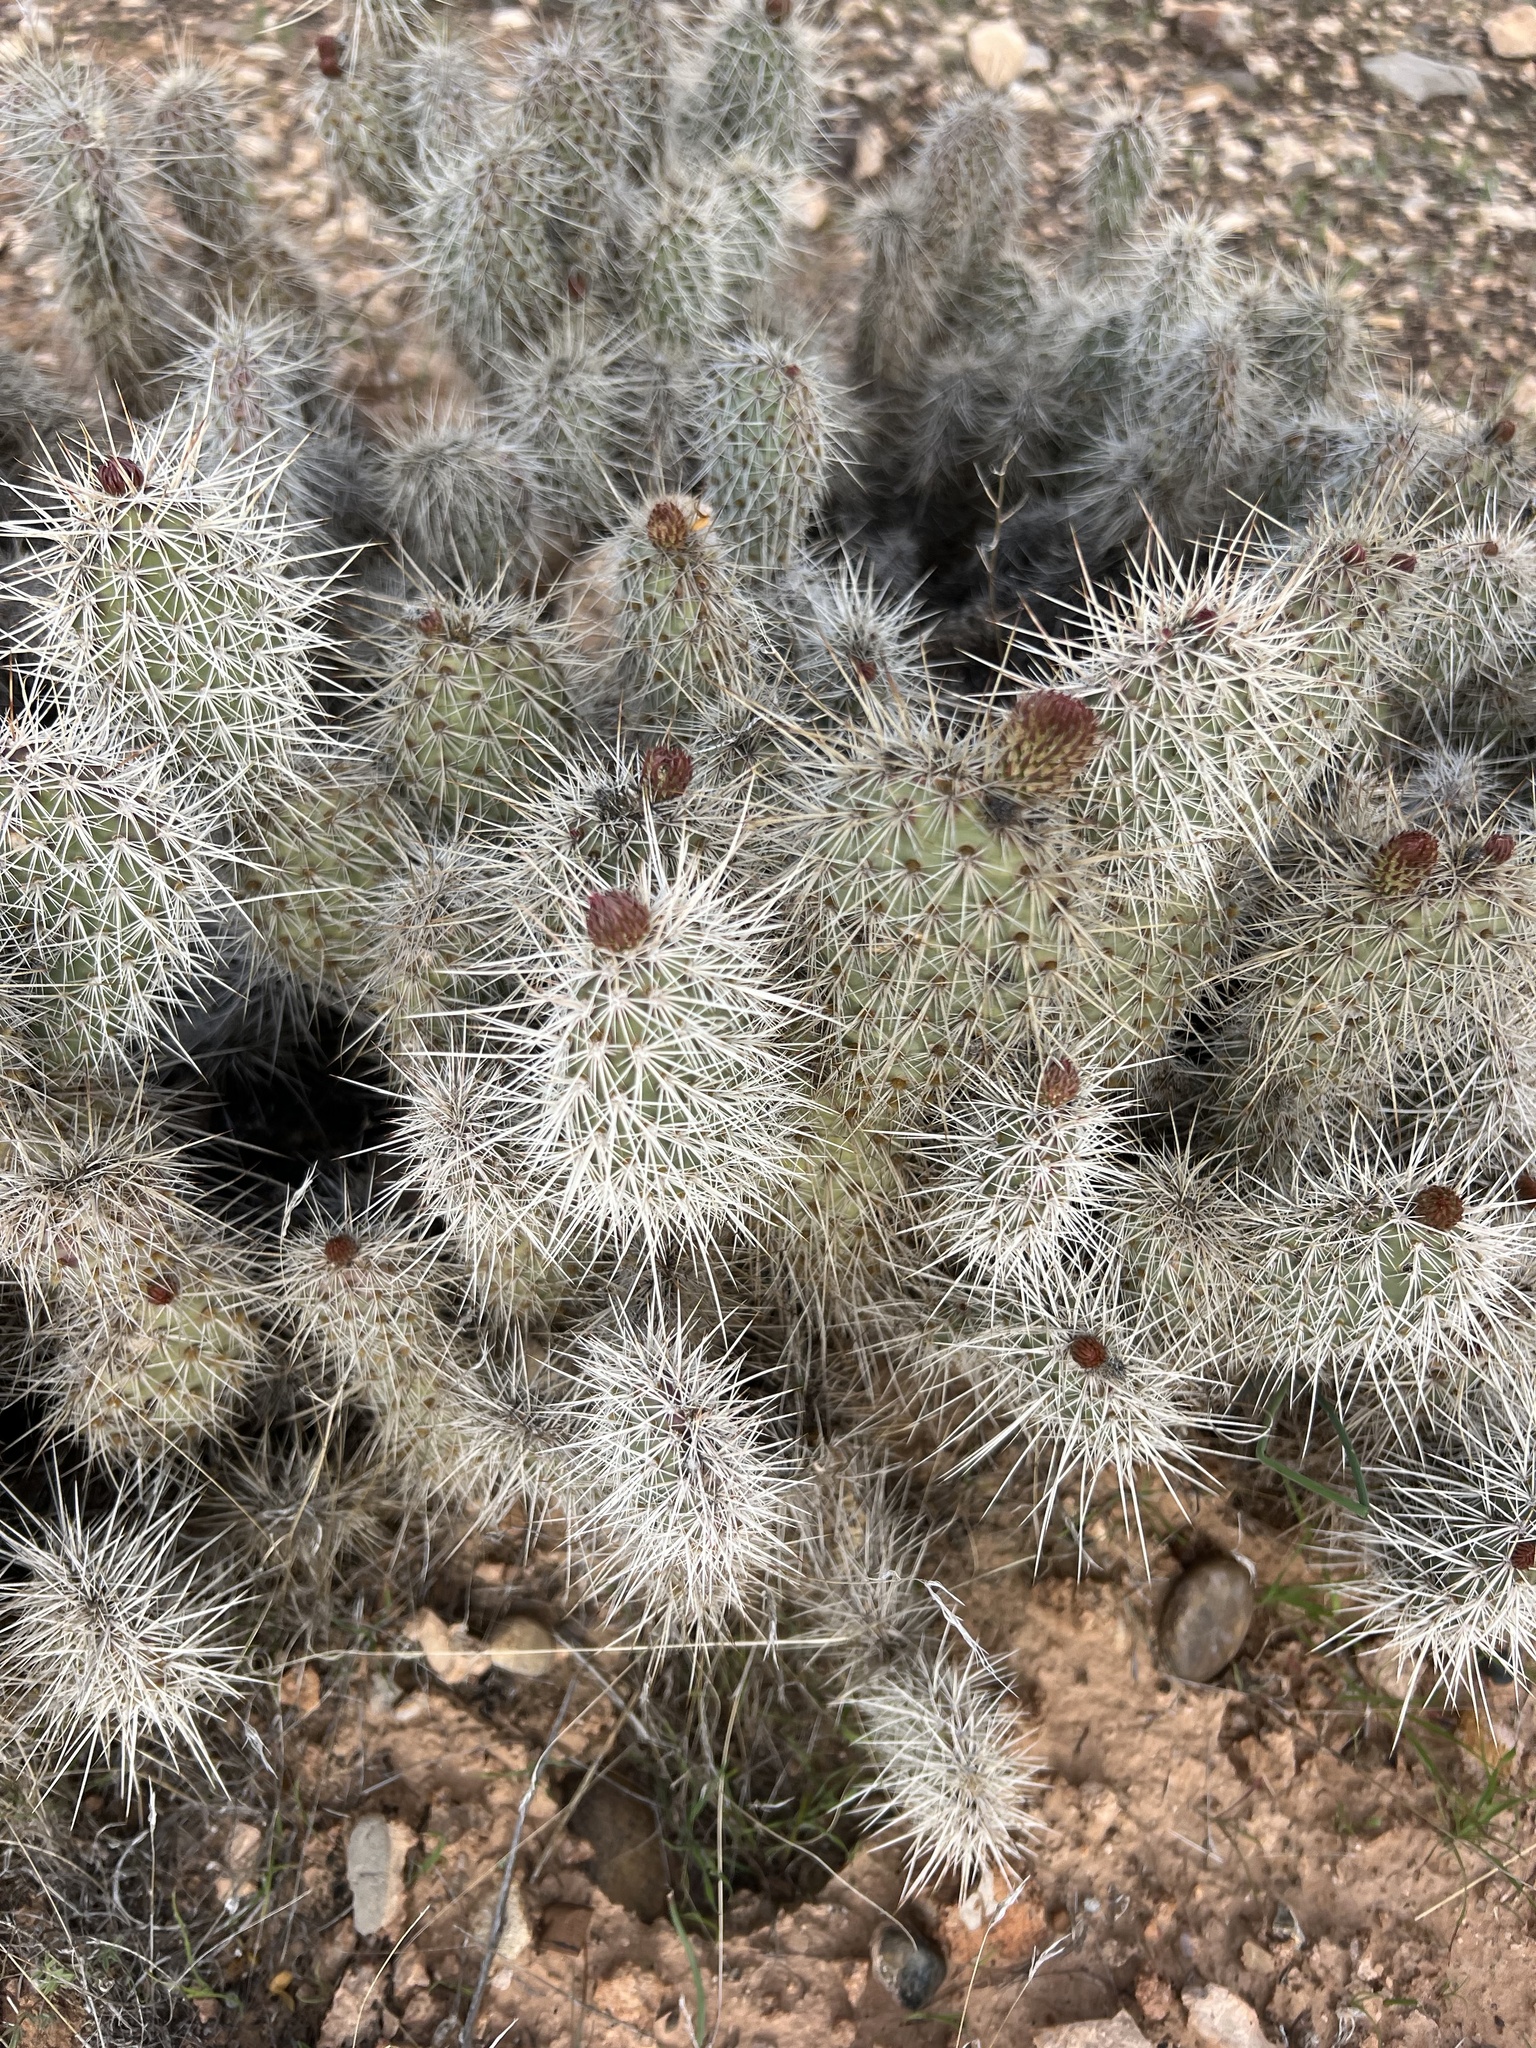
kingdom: Plantae
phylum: Tracheophyta
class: Magnoliopsida
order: Caryophyllales
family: Cactaceae
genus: Opuntia
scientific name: Opuntia polyacantha
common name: Plains prickly-pear
